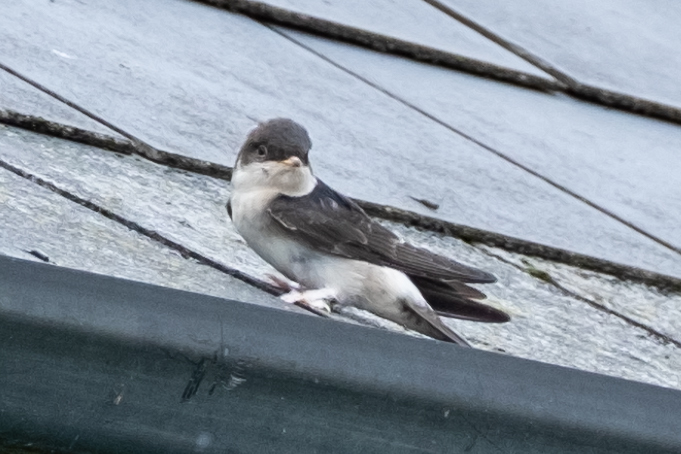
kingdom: Animalia
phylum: Chordata
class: Aves
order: Passeriformes
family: Hirundinidae
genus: Delichon
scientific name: Delichon urbicum
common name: Common house martin
